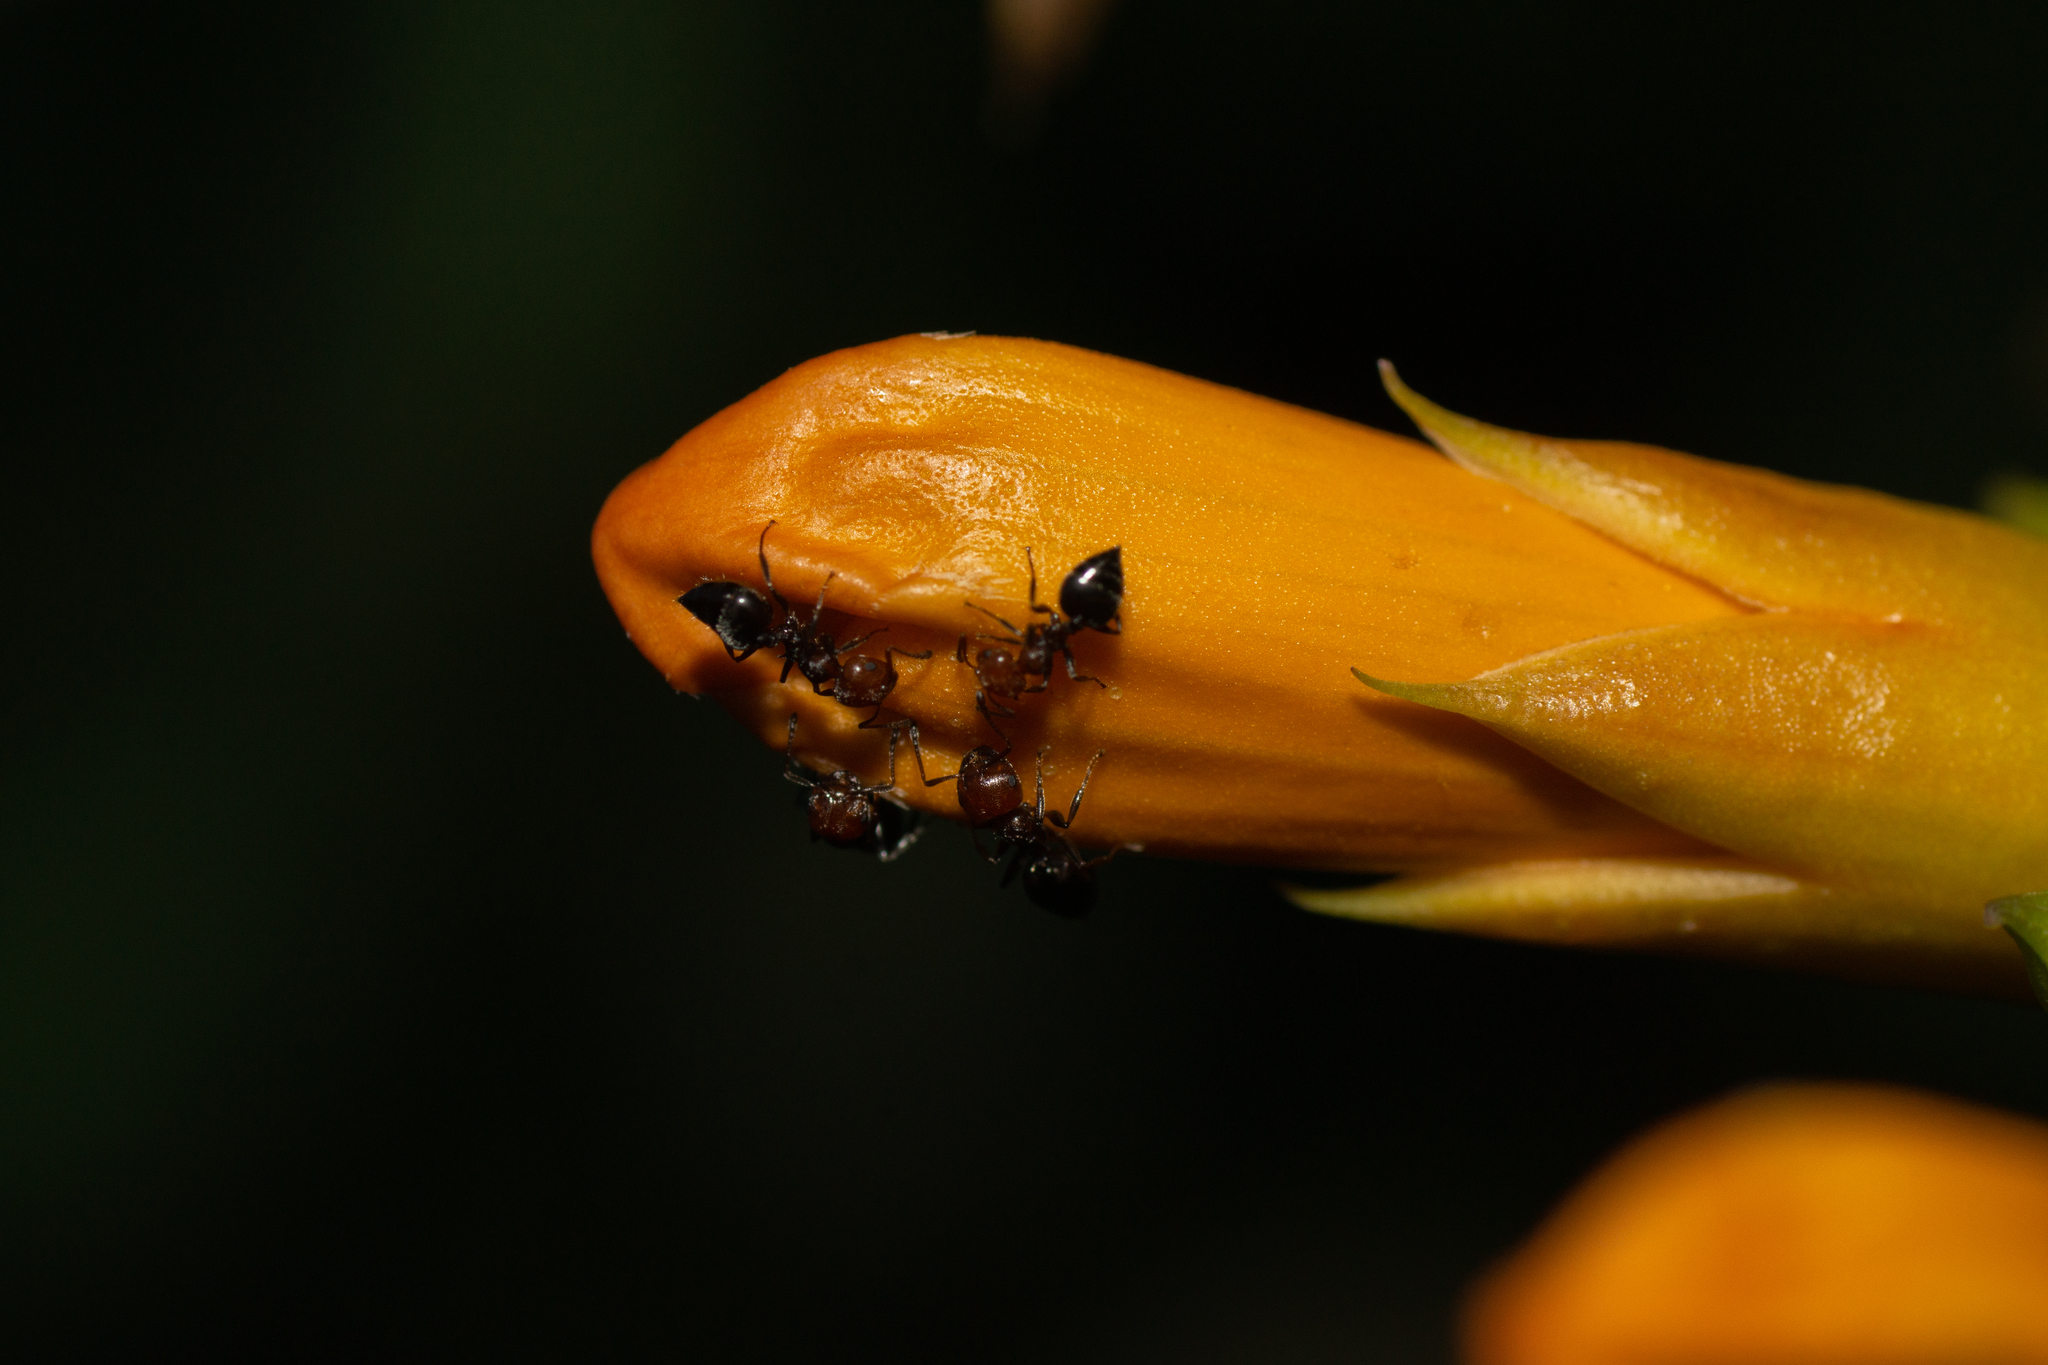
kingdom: Animalia
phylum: Arthropoda
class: Insecta
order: Hymenoptera
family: Formicidae
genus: Crematogaster
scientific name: Crematogaster scutellaris
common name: Fourmi du liège
